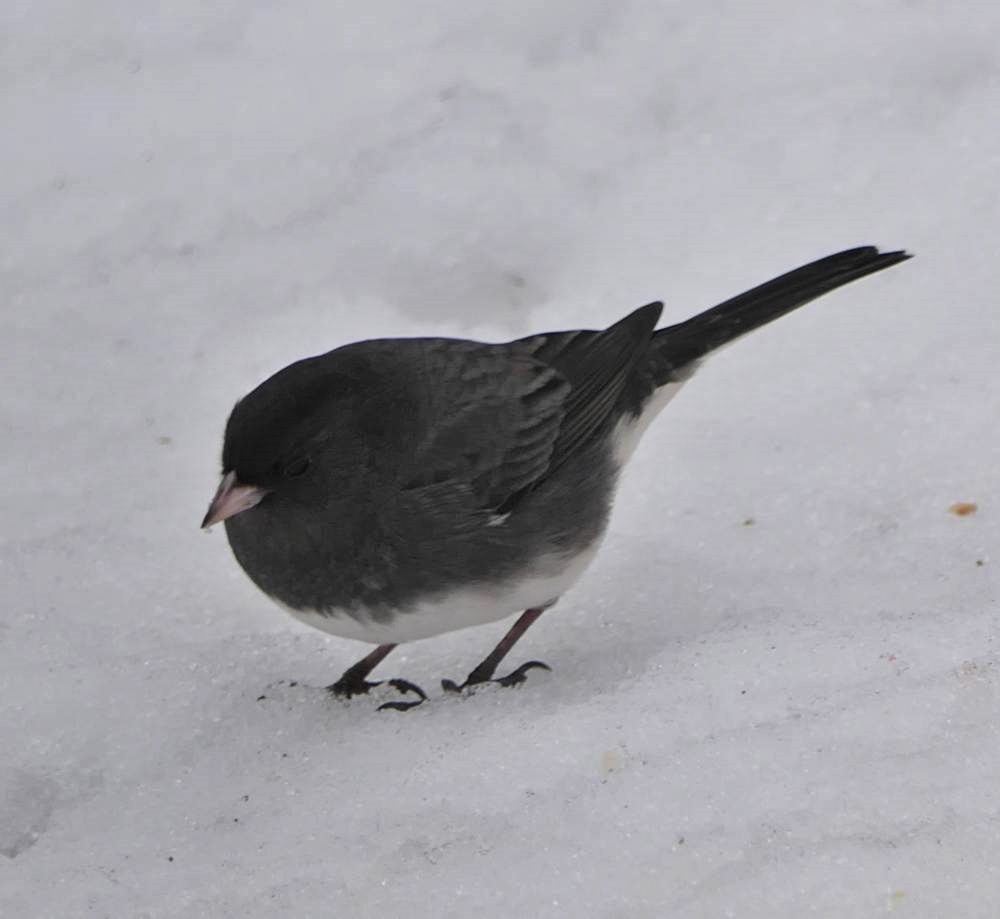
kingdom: Animalia
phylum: Chordata
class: Aves
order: Passeriformes
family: Passerellidae
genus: Junco
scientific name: Junco hyemalis
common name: Dark-eyed junco
